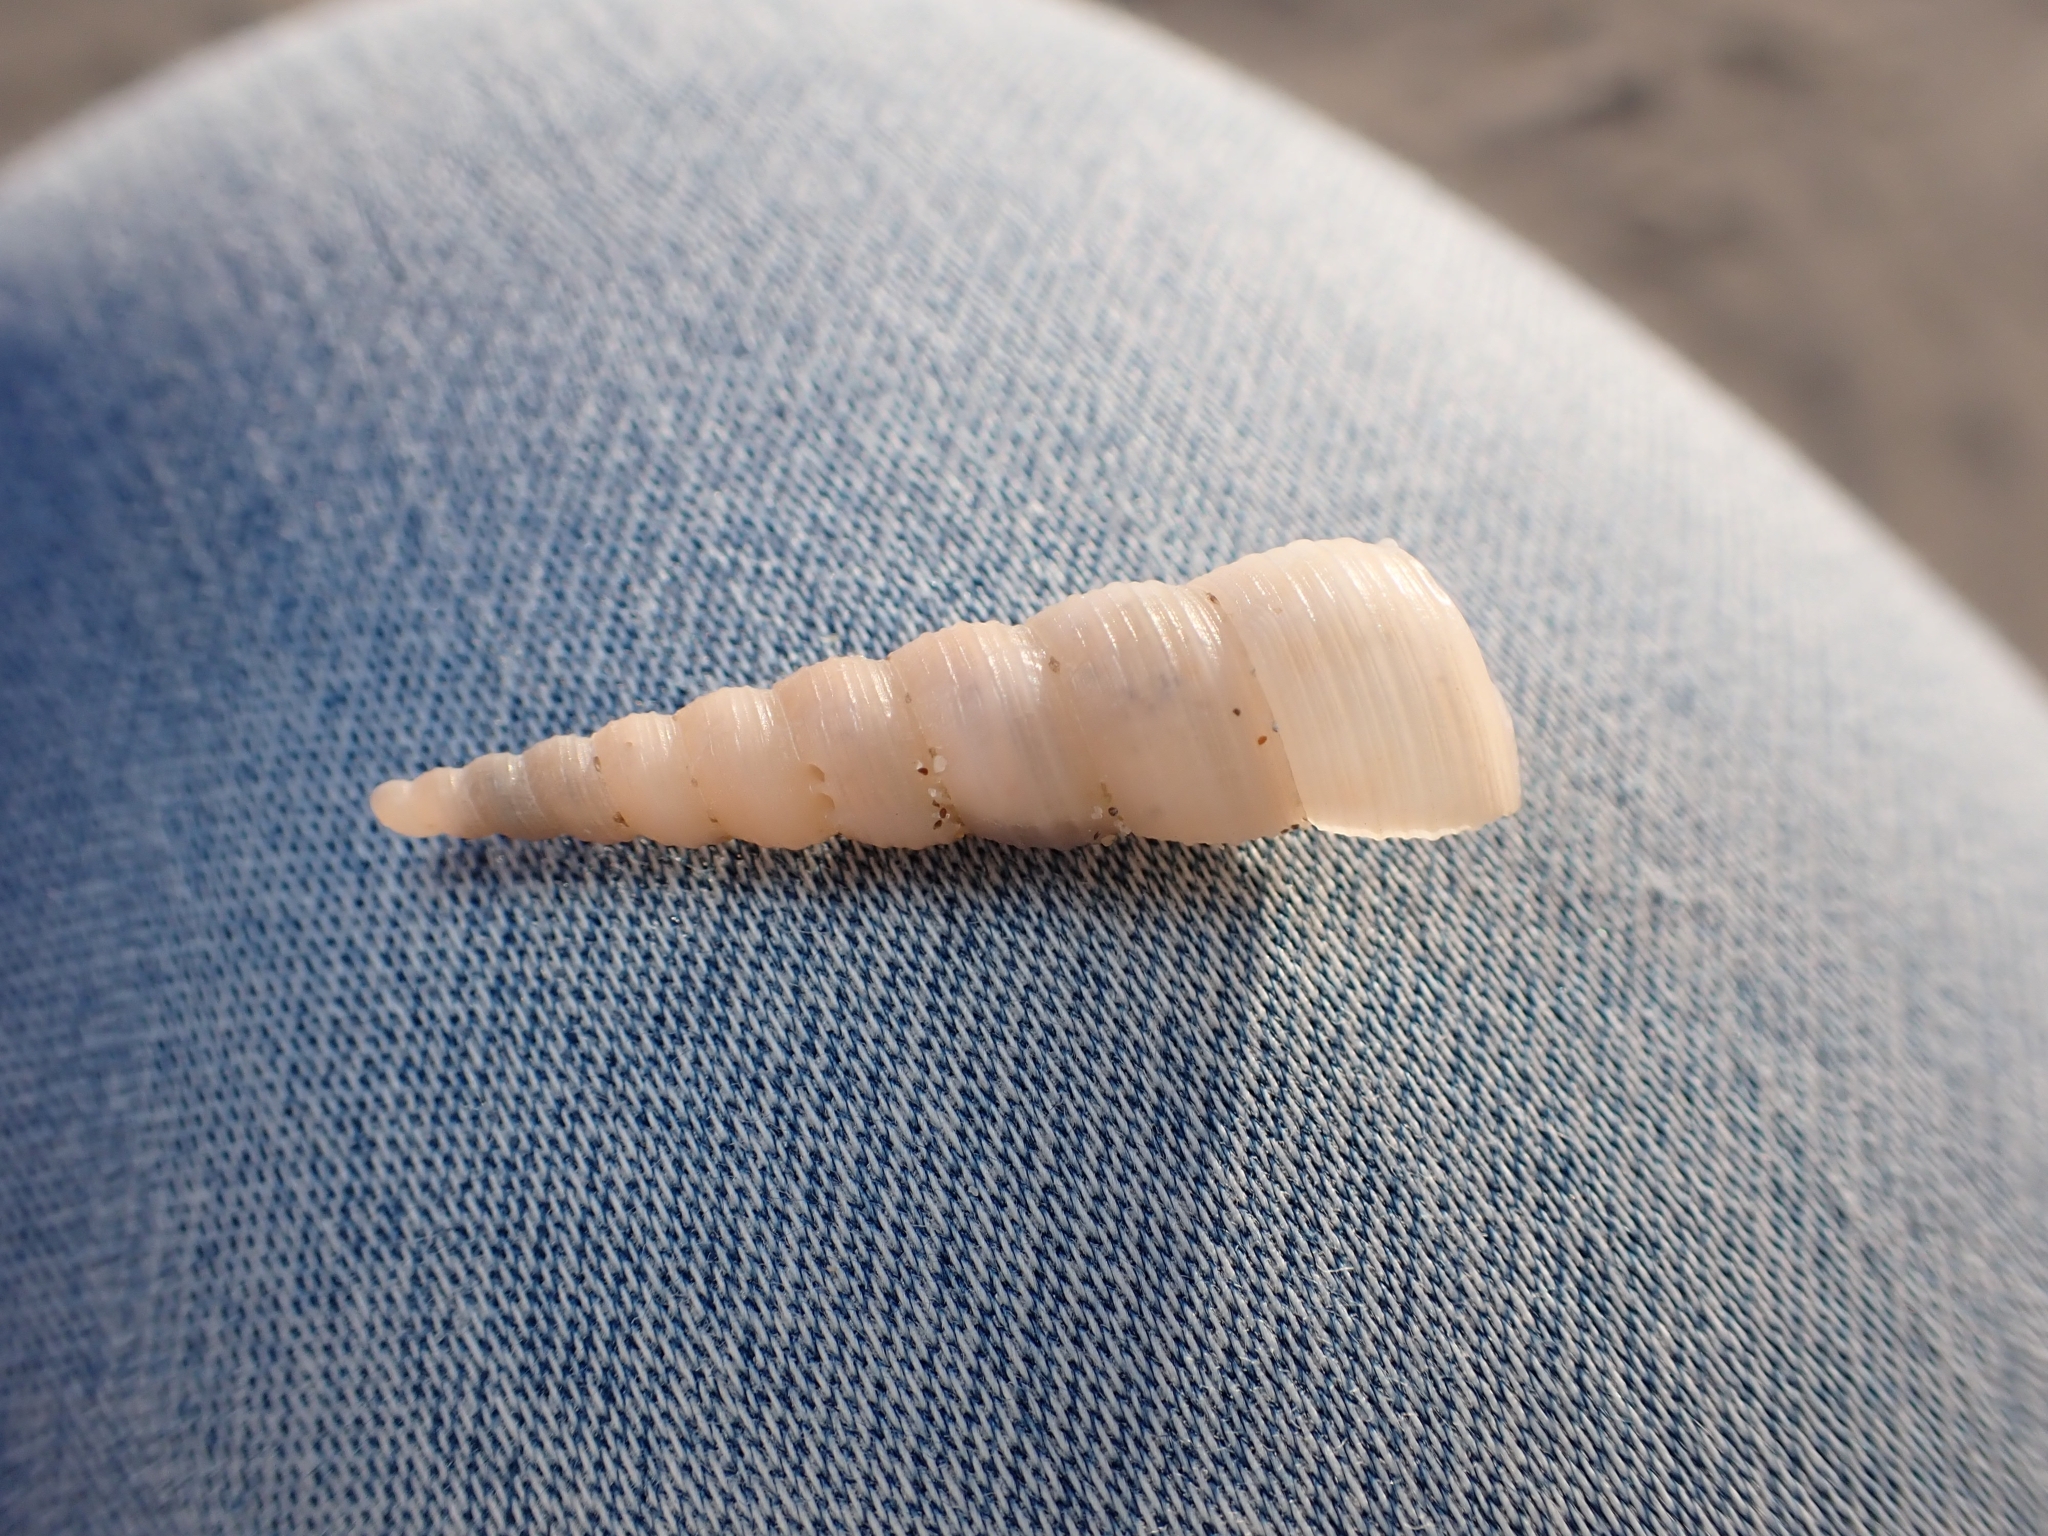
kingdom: Animalia
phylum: Mollusca
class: Gastropoda
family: Turritellidae
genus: Turritellinella
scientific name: Turritellinella tricarinata
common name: Auger shell
